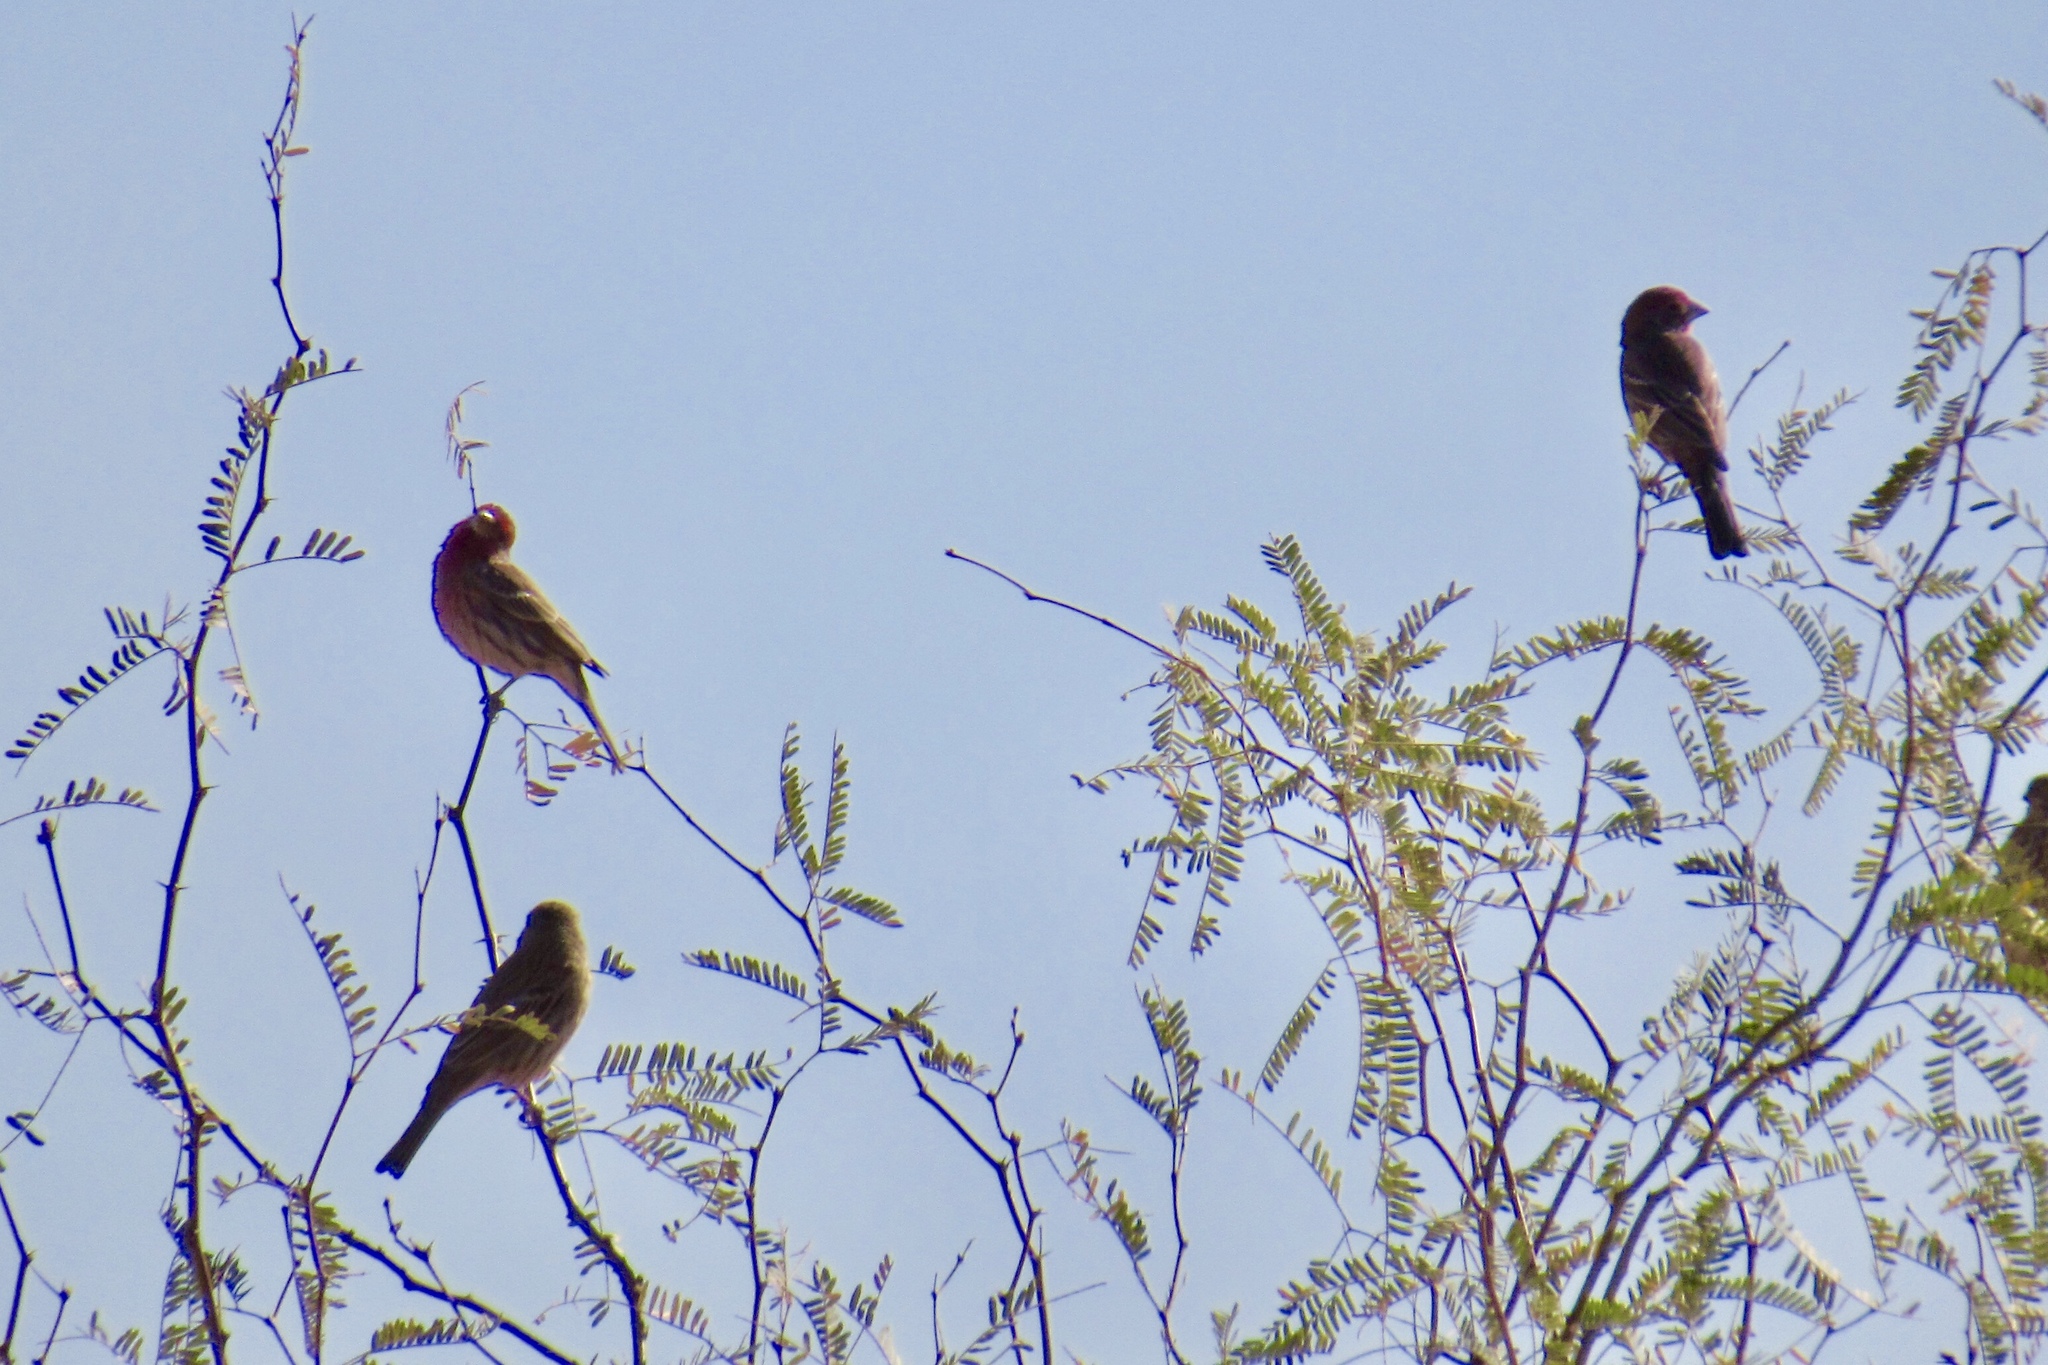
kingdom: Animalia
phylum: Chordata
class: Aves
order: Passeriformes
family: Fringillidae
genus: Haemorhous
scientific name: Haemorhous mexicanus
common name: House finch
